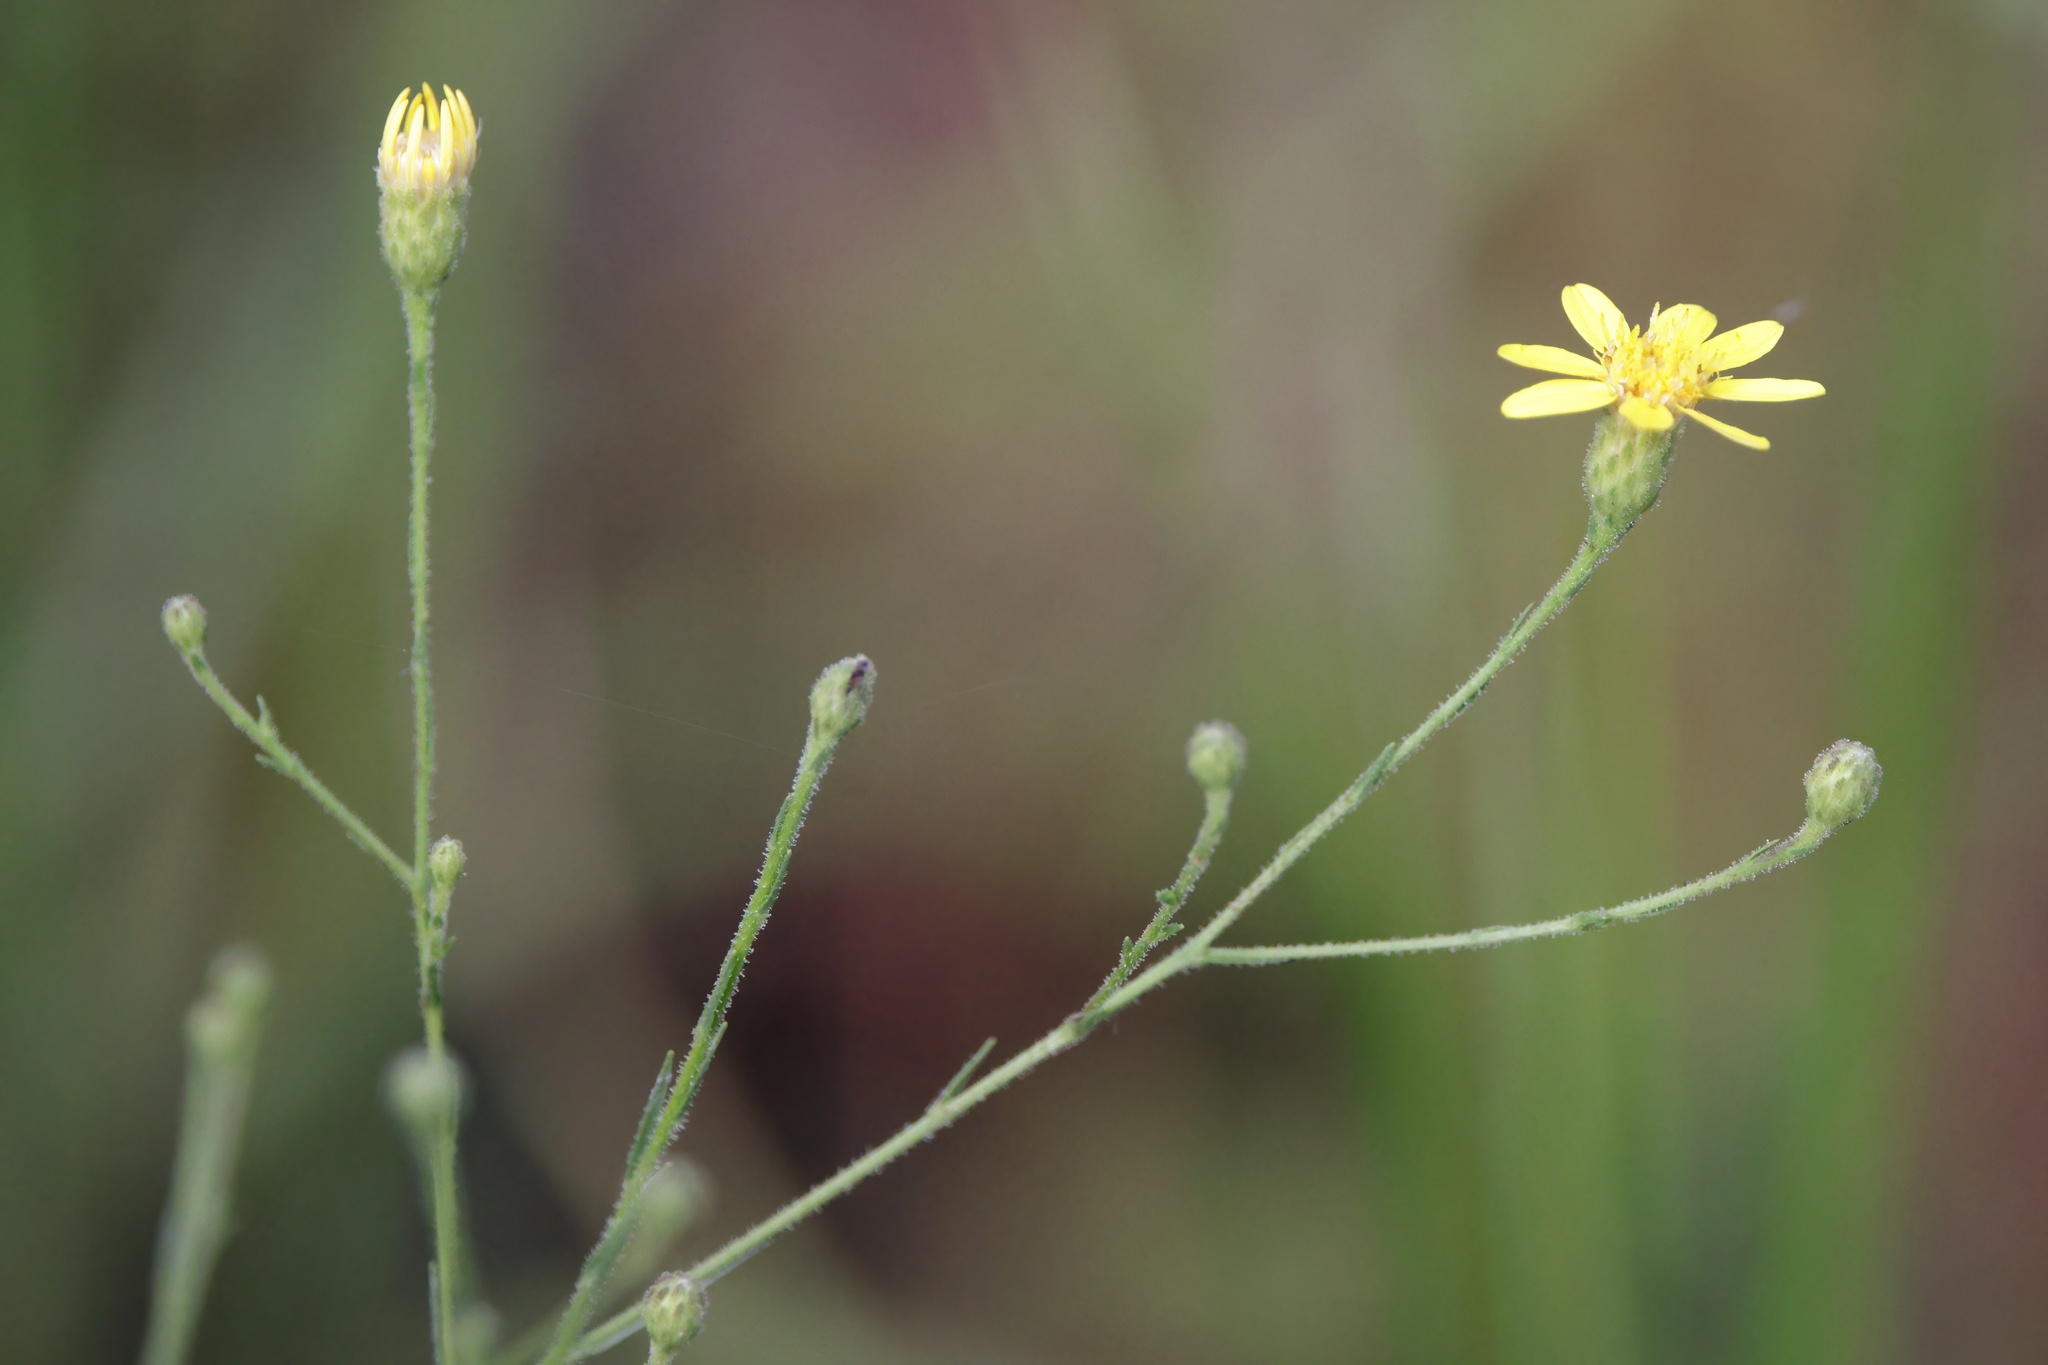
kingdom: Plantae
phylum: Tracheophyta
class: Magnoliopsida
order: Asterales
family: Asteraceae
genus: Pityopsis
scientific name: Pityopsis graminifolia
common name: Grass-leaf golden-aster
